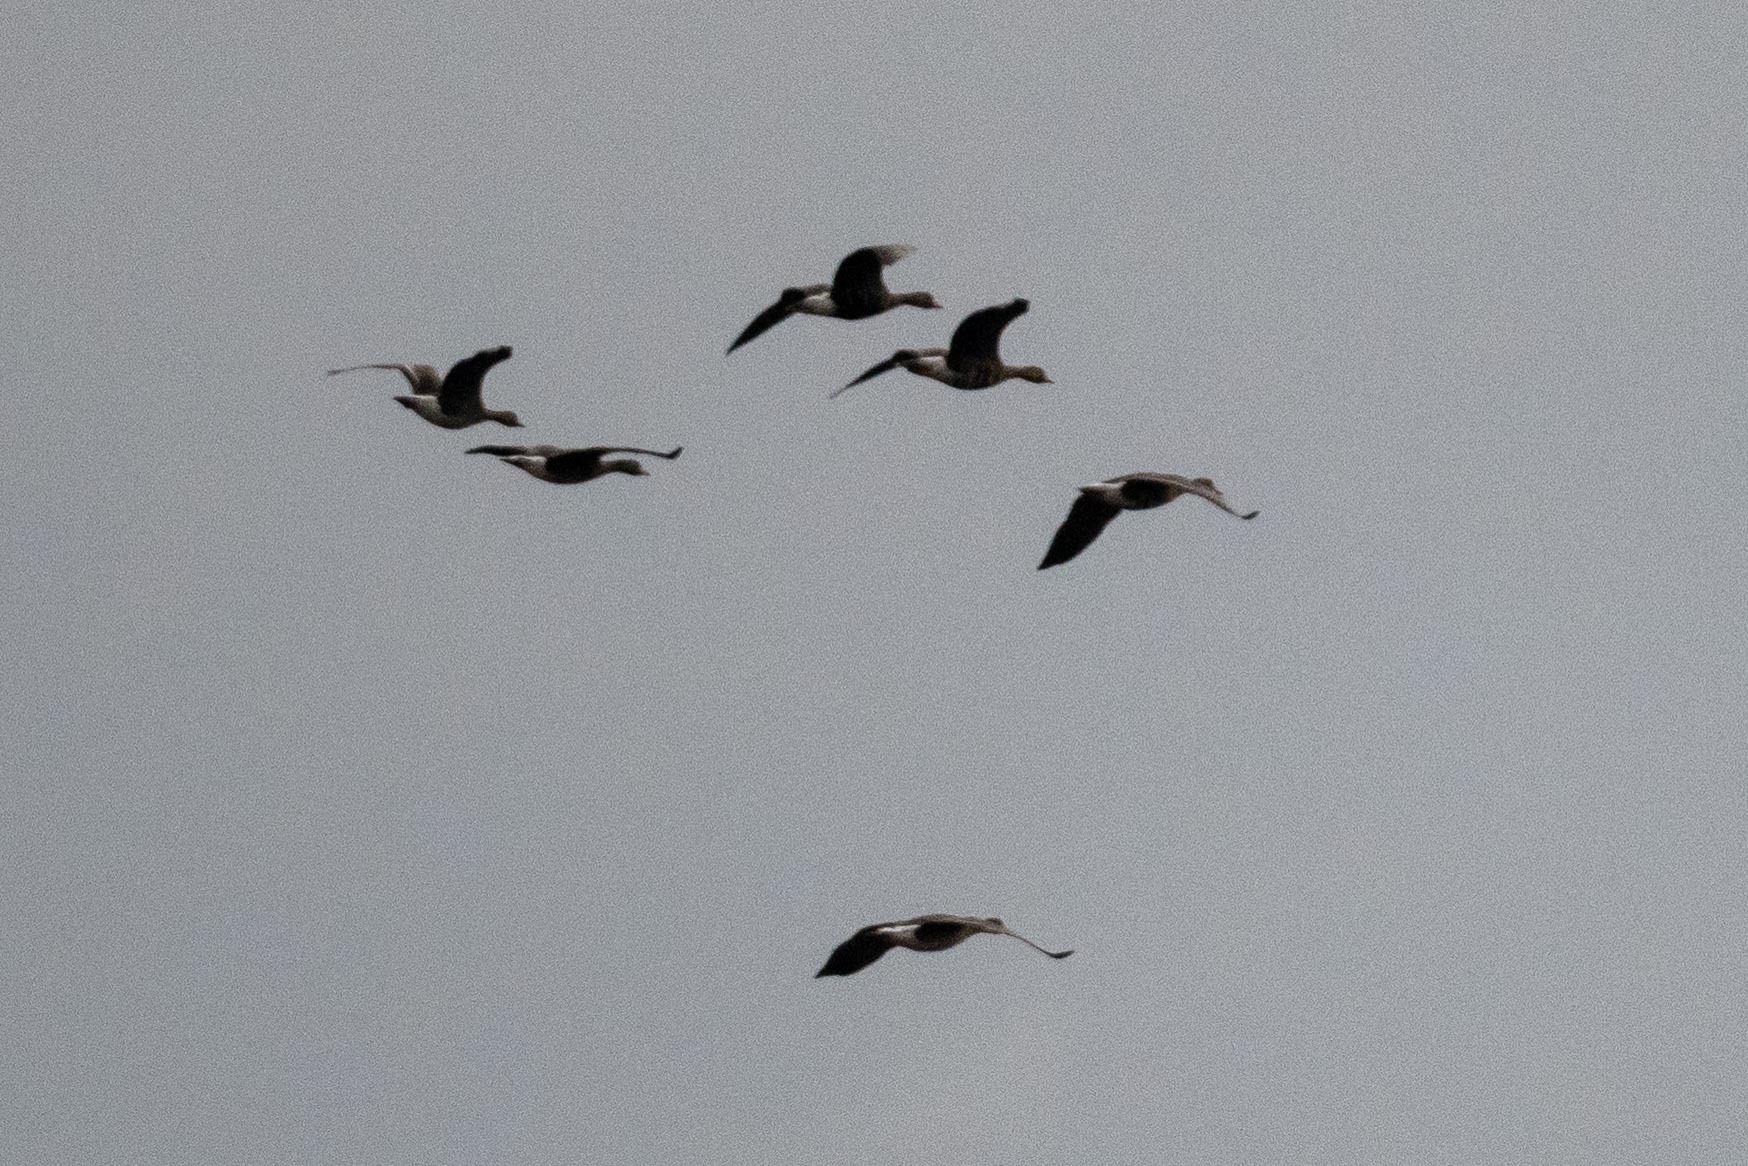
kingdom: Animalia
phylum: Chordata
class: Aves
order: Anseriformes
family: Anatidae
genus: Anser
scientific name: Anser albifrons
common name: Greater white-fronted goose
